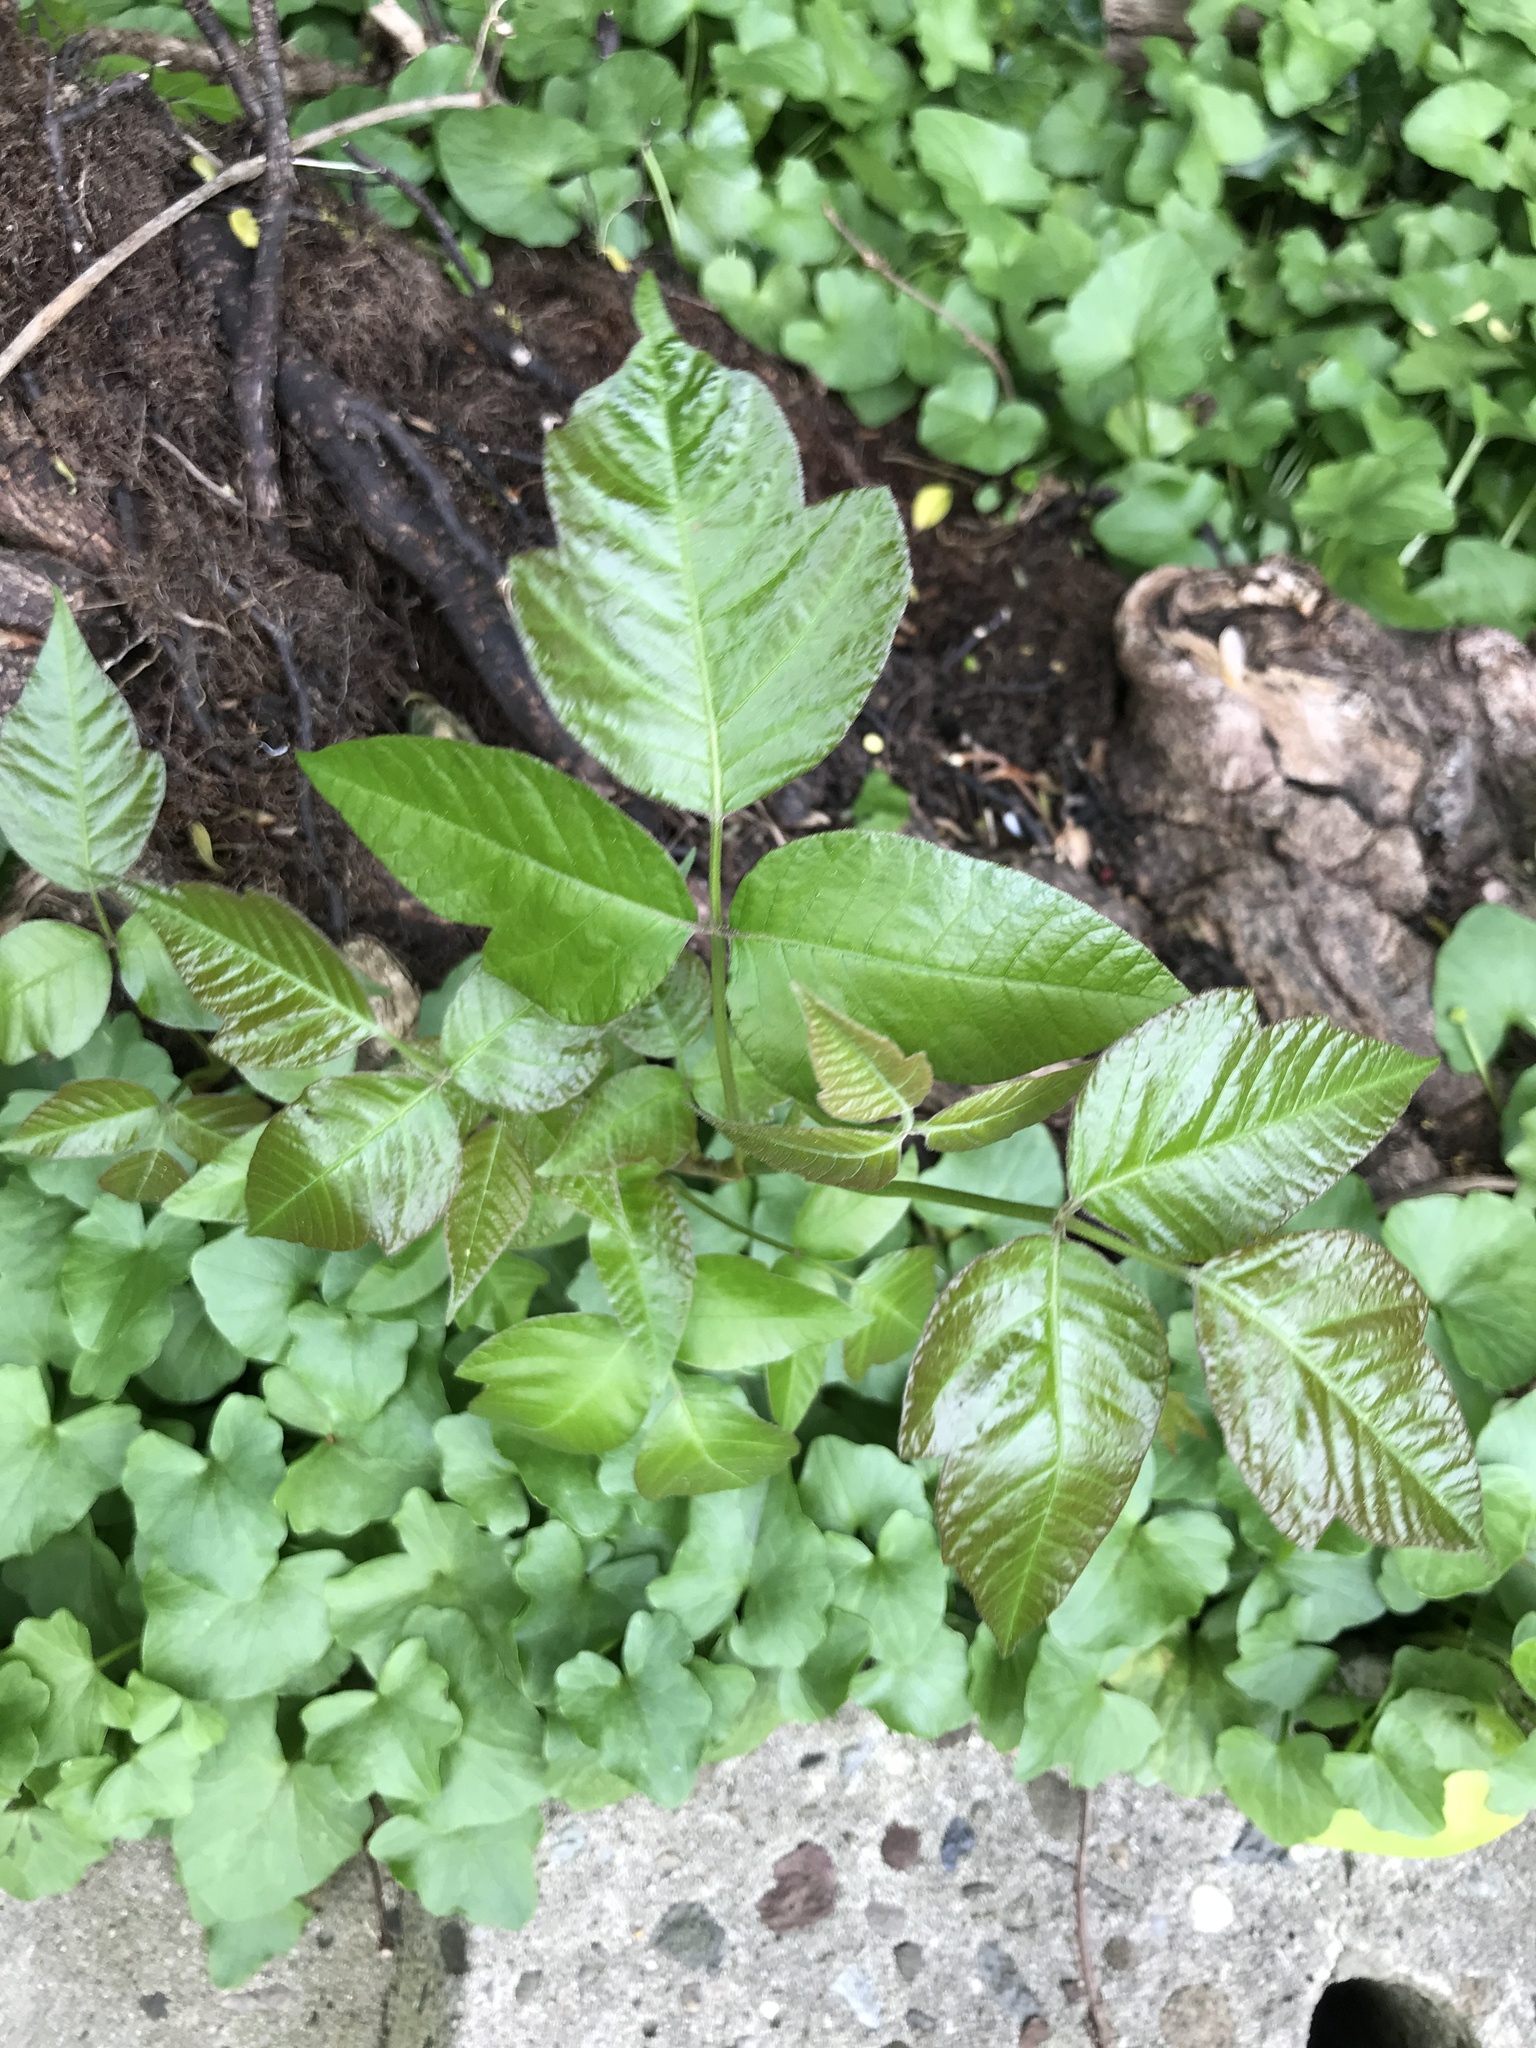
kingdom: Plantae
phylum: Tracheophyta
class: Magnoliopsida
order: Sapindales
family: Anacardiaceae
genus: Toxicodendron
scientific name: Toxicodendron radicans
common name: Poison ivy
